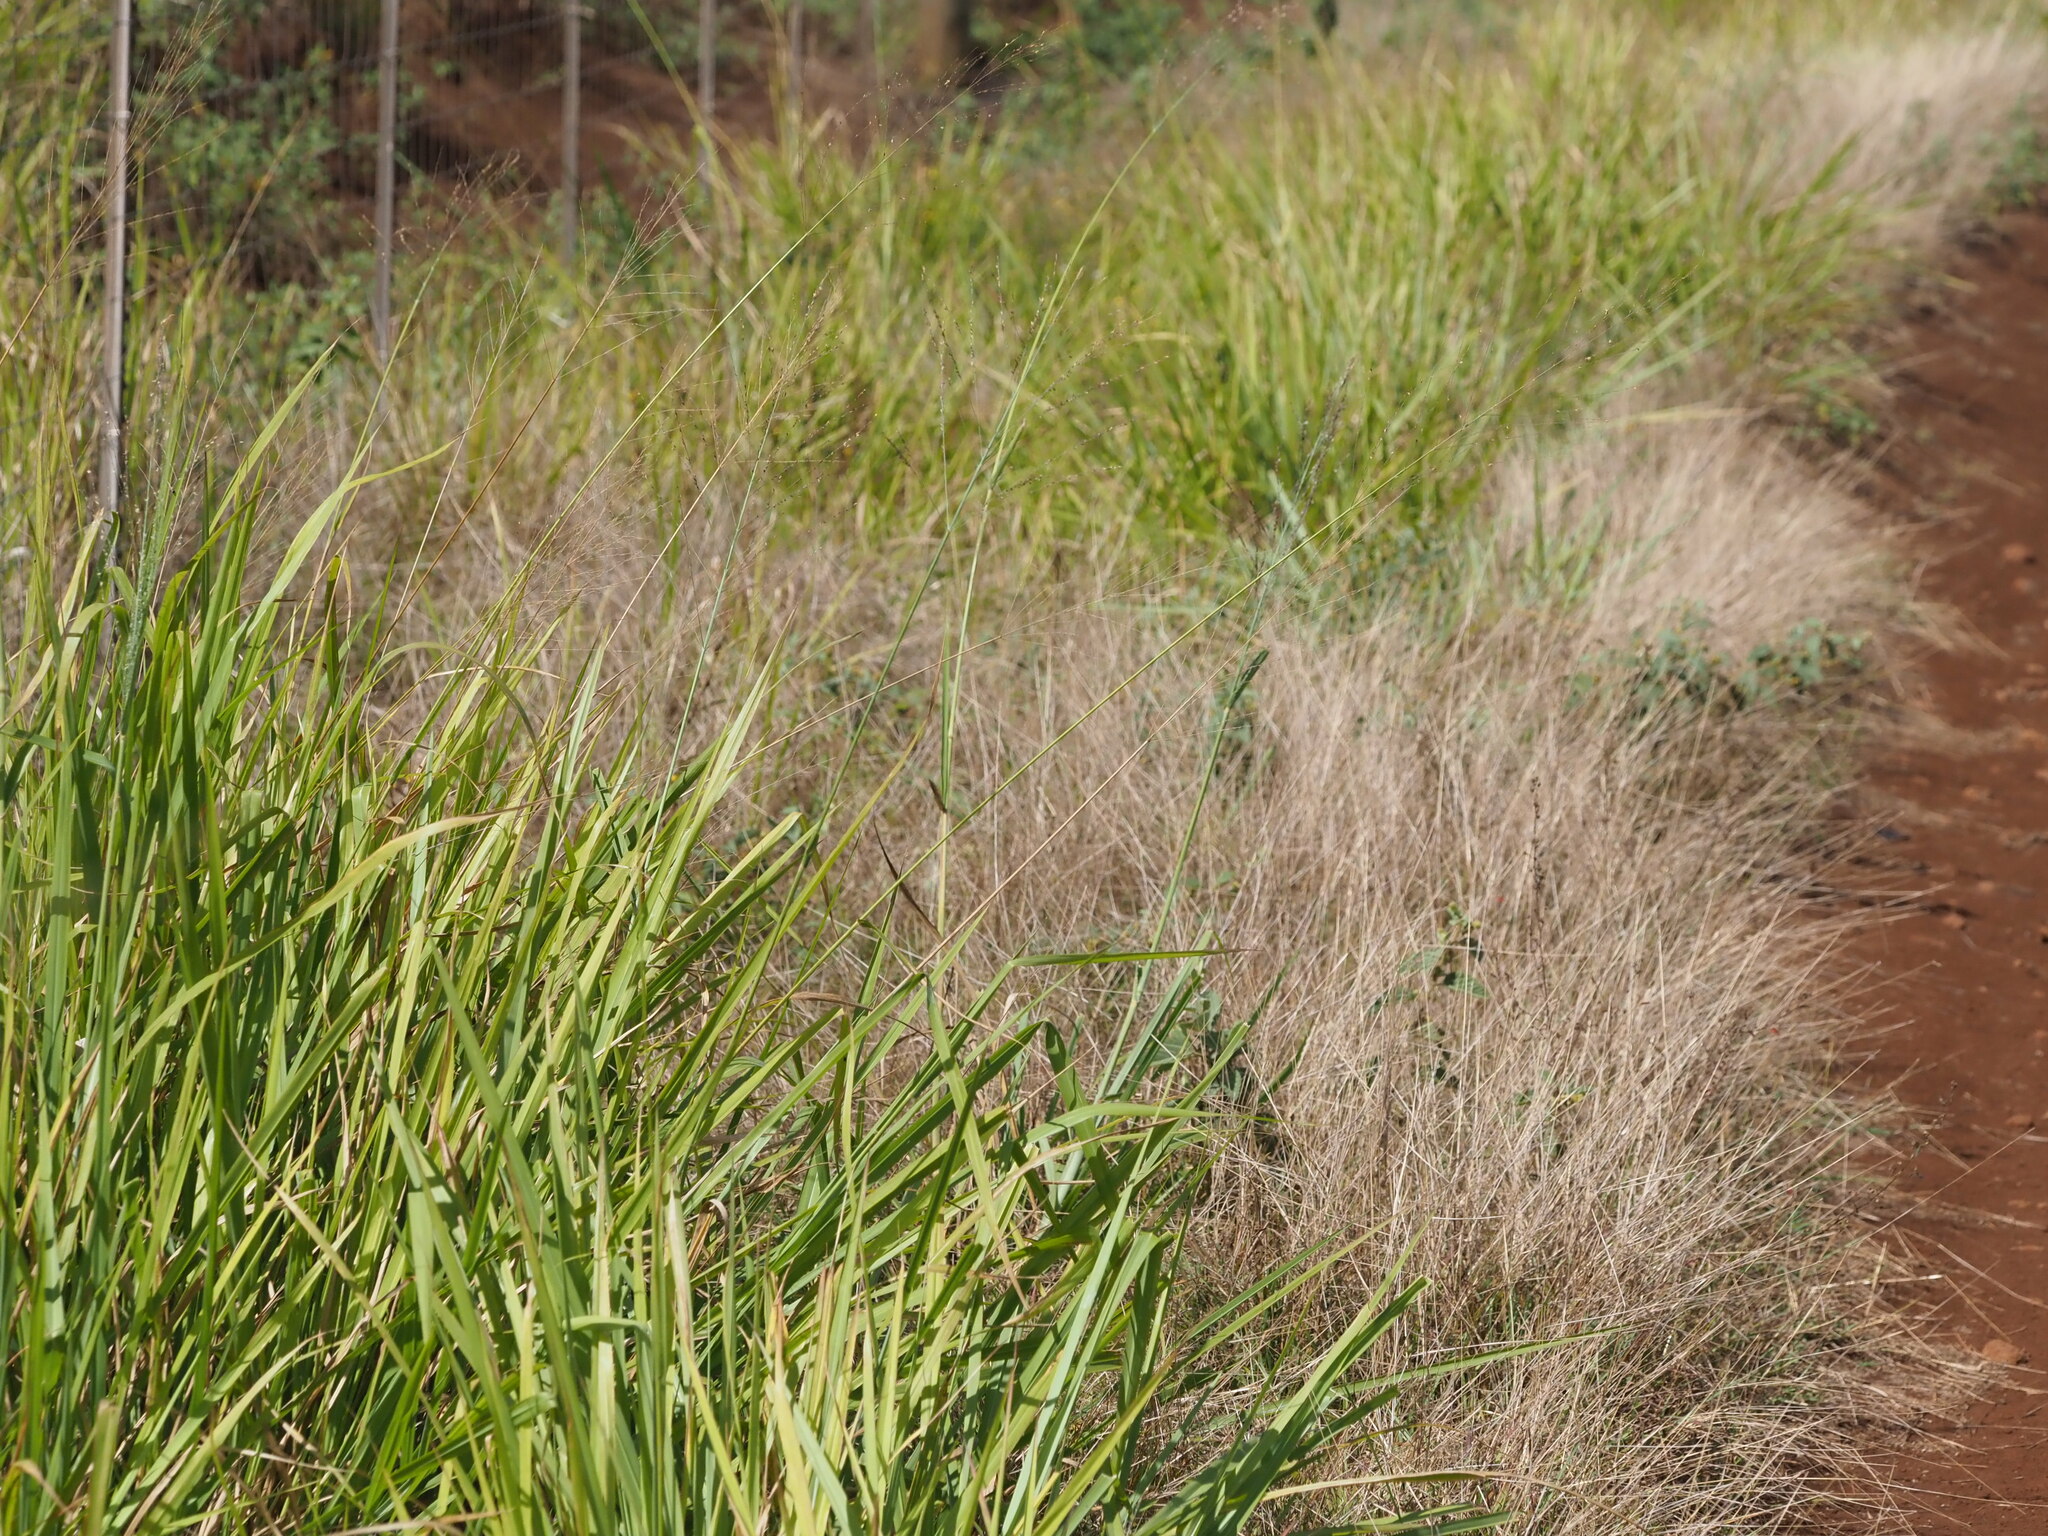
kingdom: Plantae
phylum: Tracheophyta
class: Liliopsida
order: Poales
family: Poaceae
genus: Megathyrsus
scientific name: Megathyrsus maximus
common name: Guineagrass
